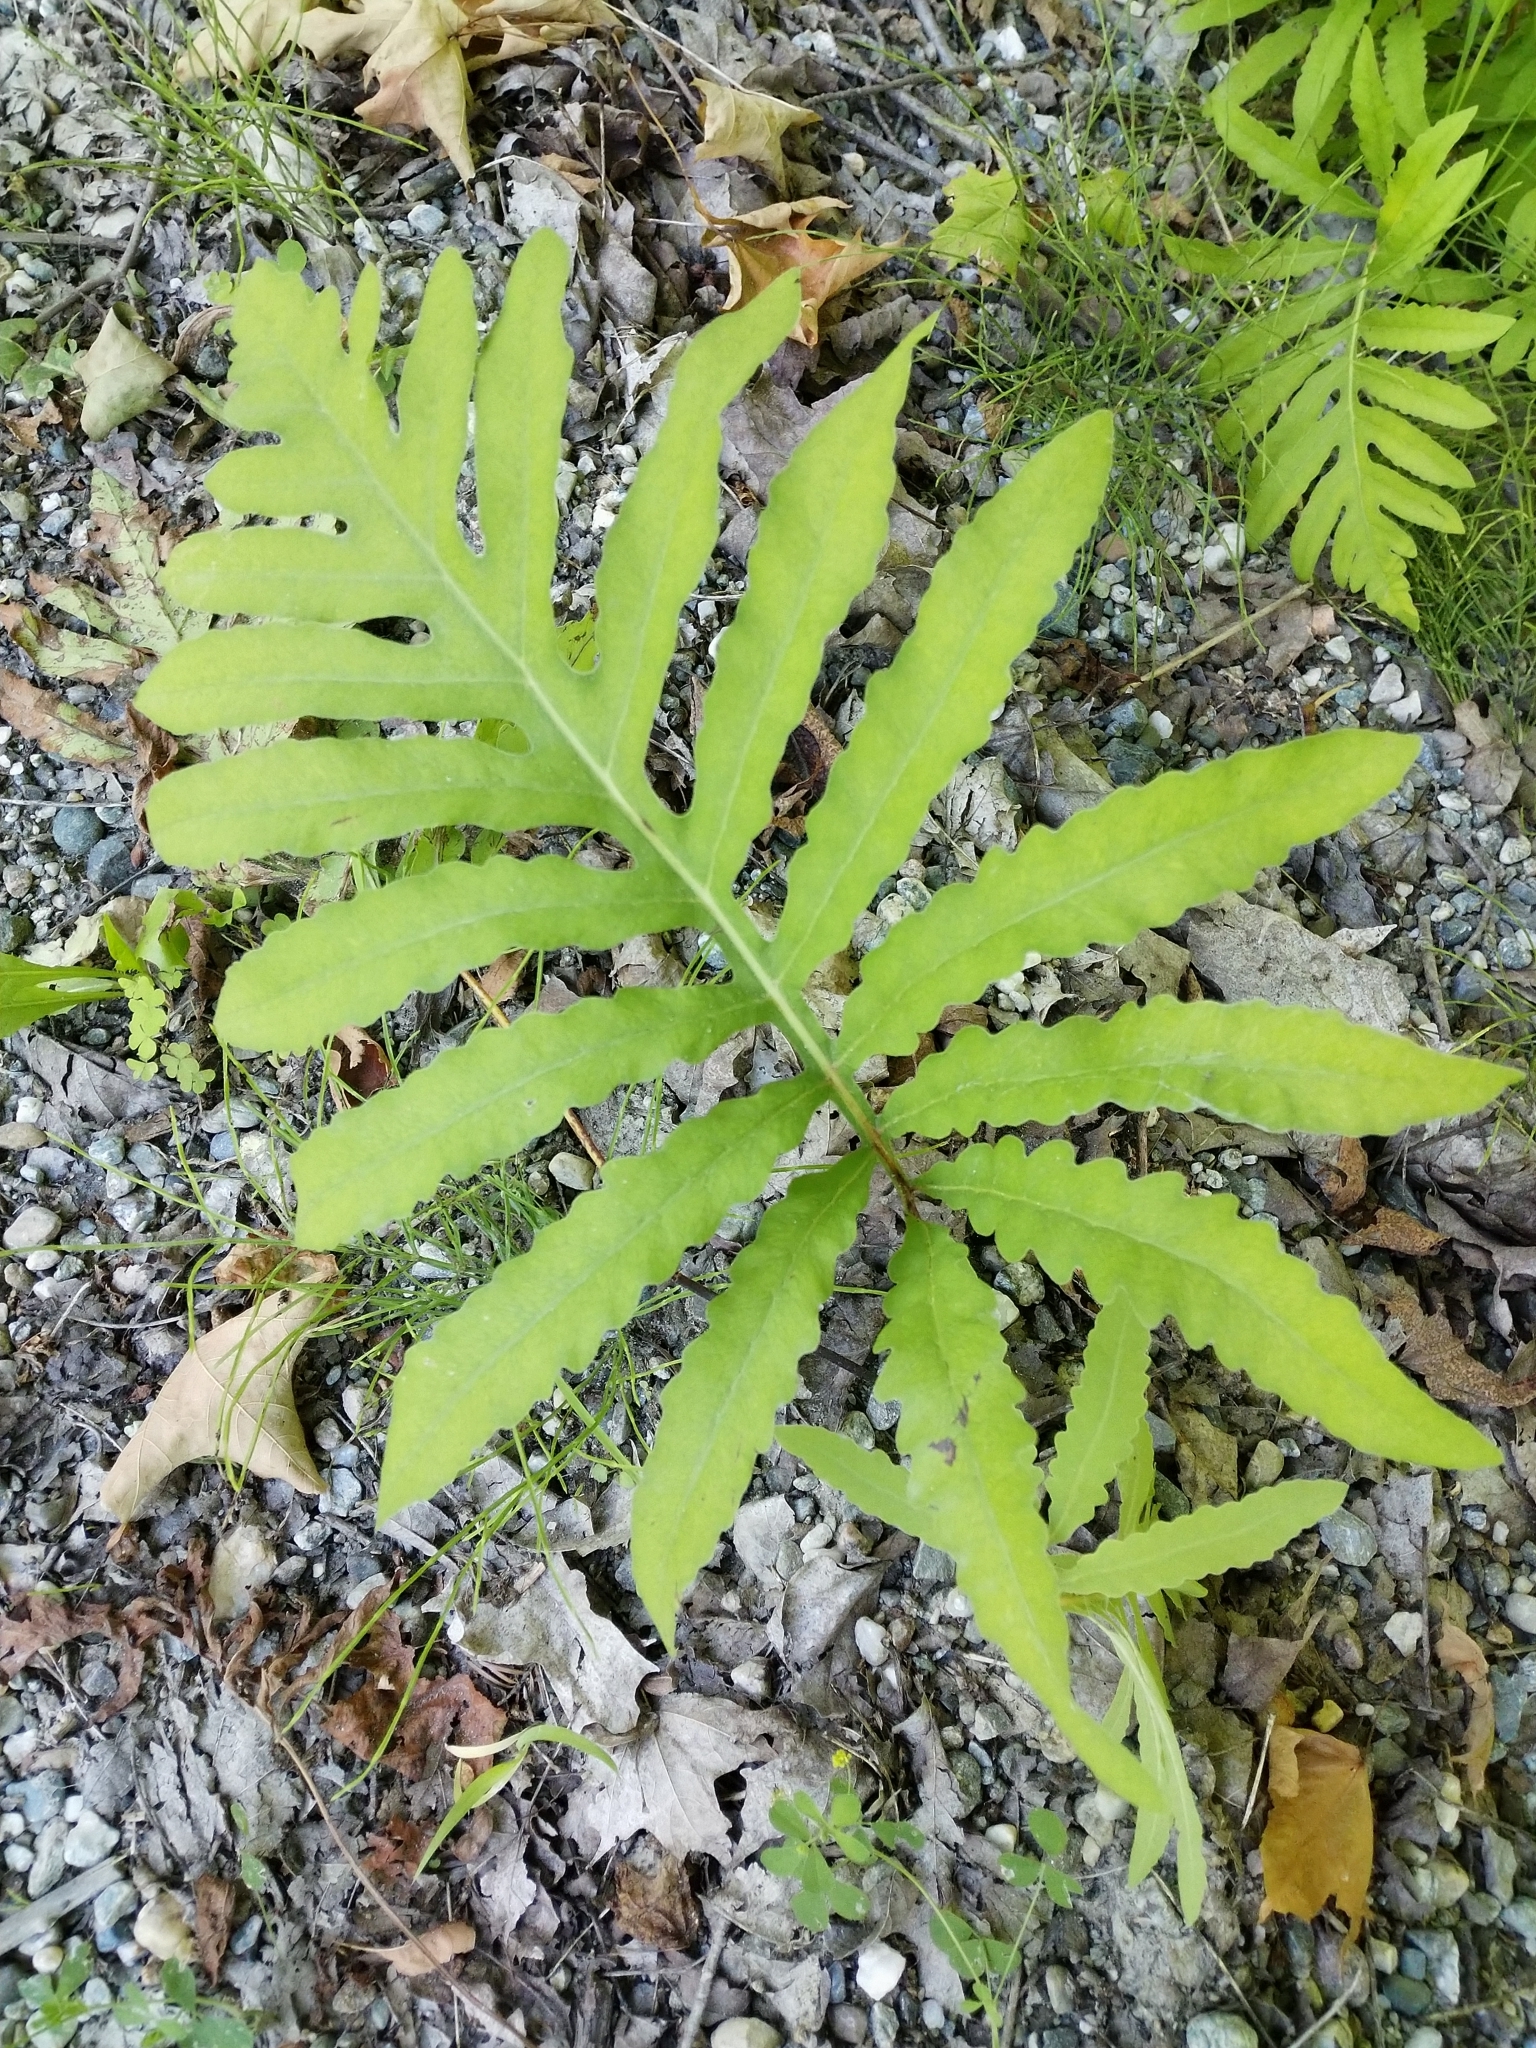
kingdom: Plantae
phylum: Tracheophyta
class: Polypodiopsida
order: Polypodiales
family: Onocleaceae
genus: Onoclea
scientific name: Onoclea sensibilis
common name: Sensitive fern
